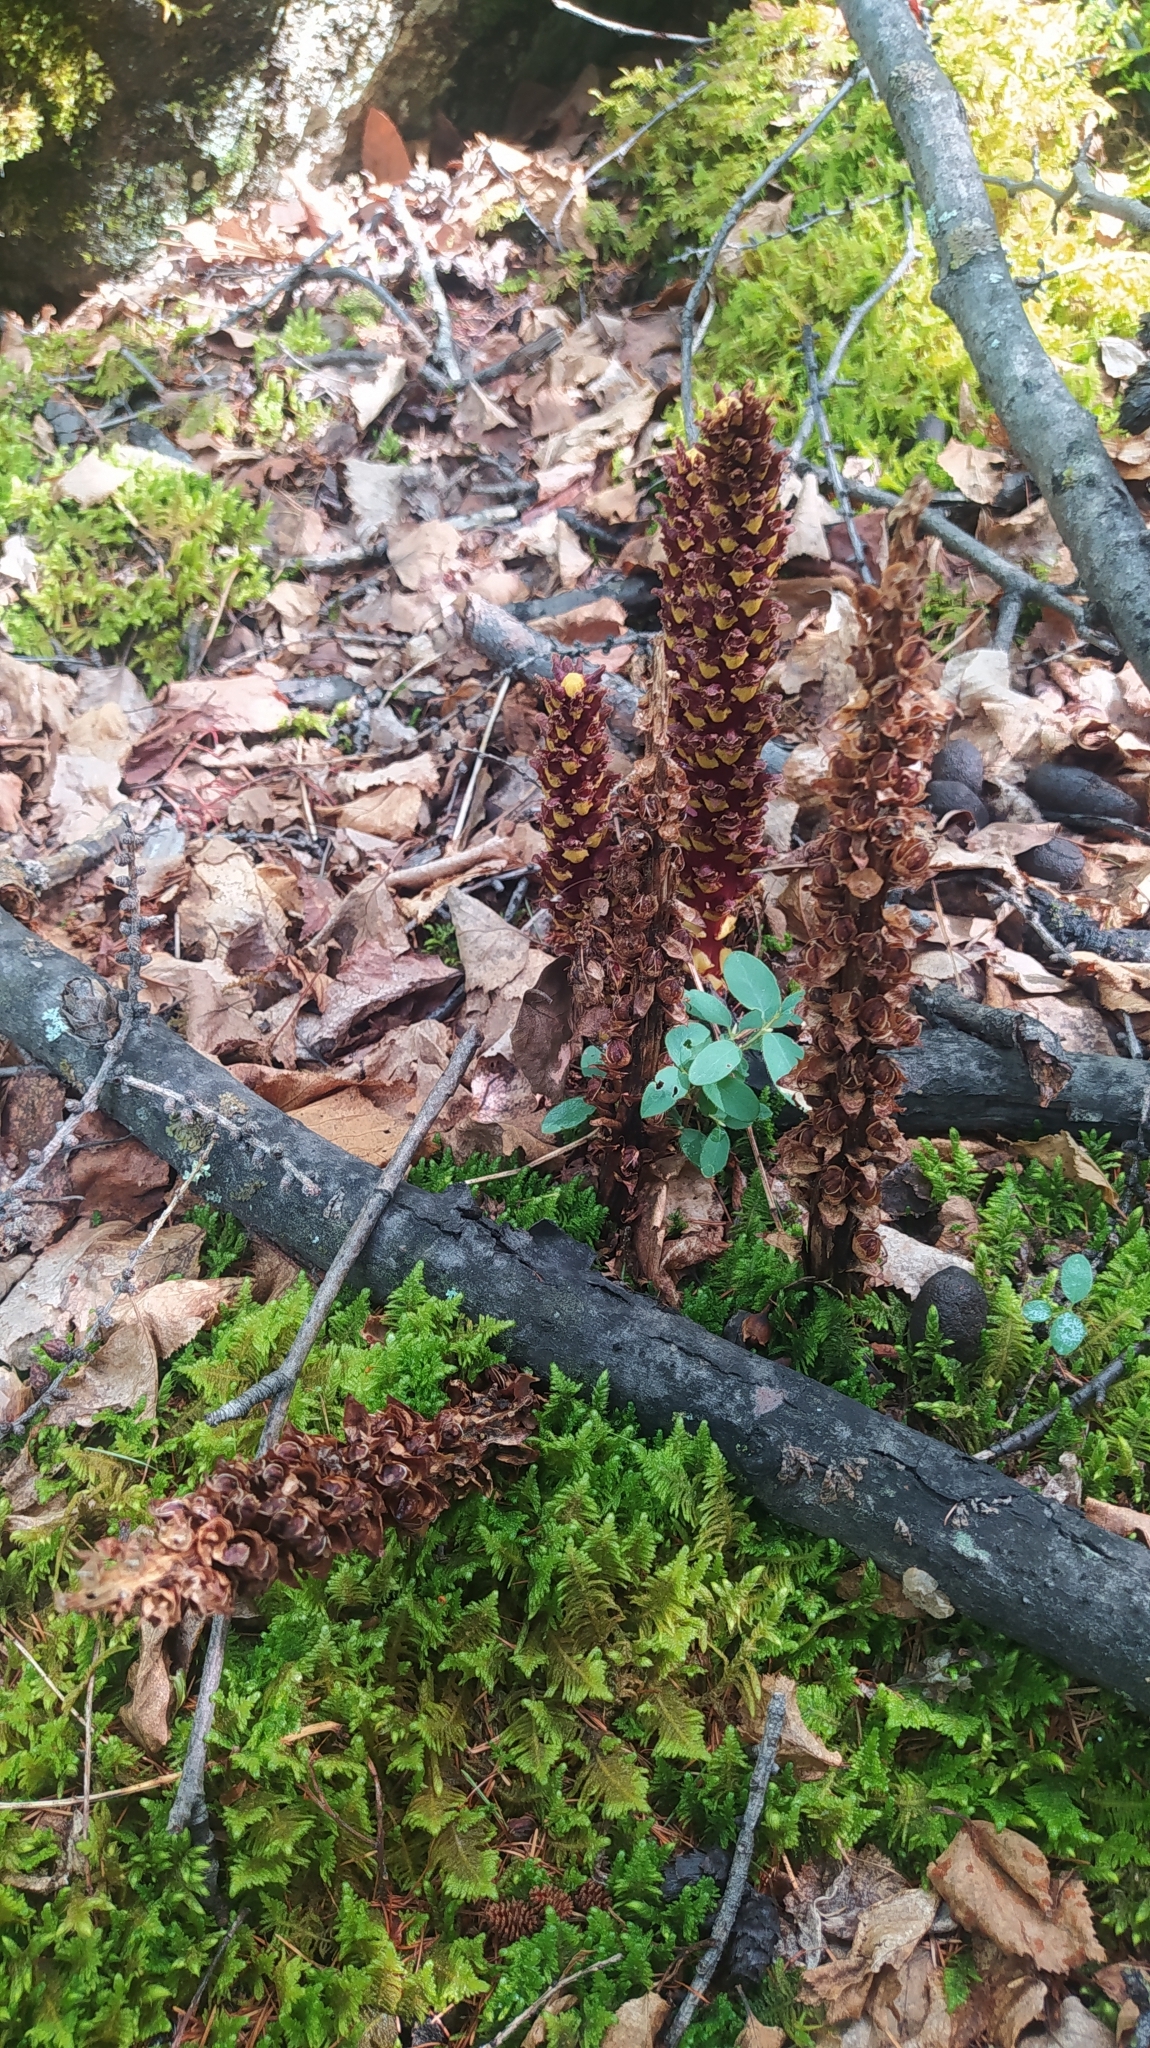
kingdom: Plantae
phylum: Tracheophyta
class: Magnoliopsida
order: Lamiales
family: Orobanchaceae
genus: Boschniakia
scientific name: Boschniakia rossica
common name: Poque
